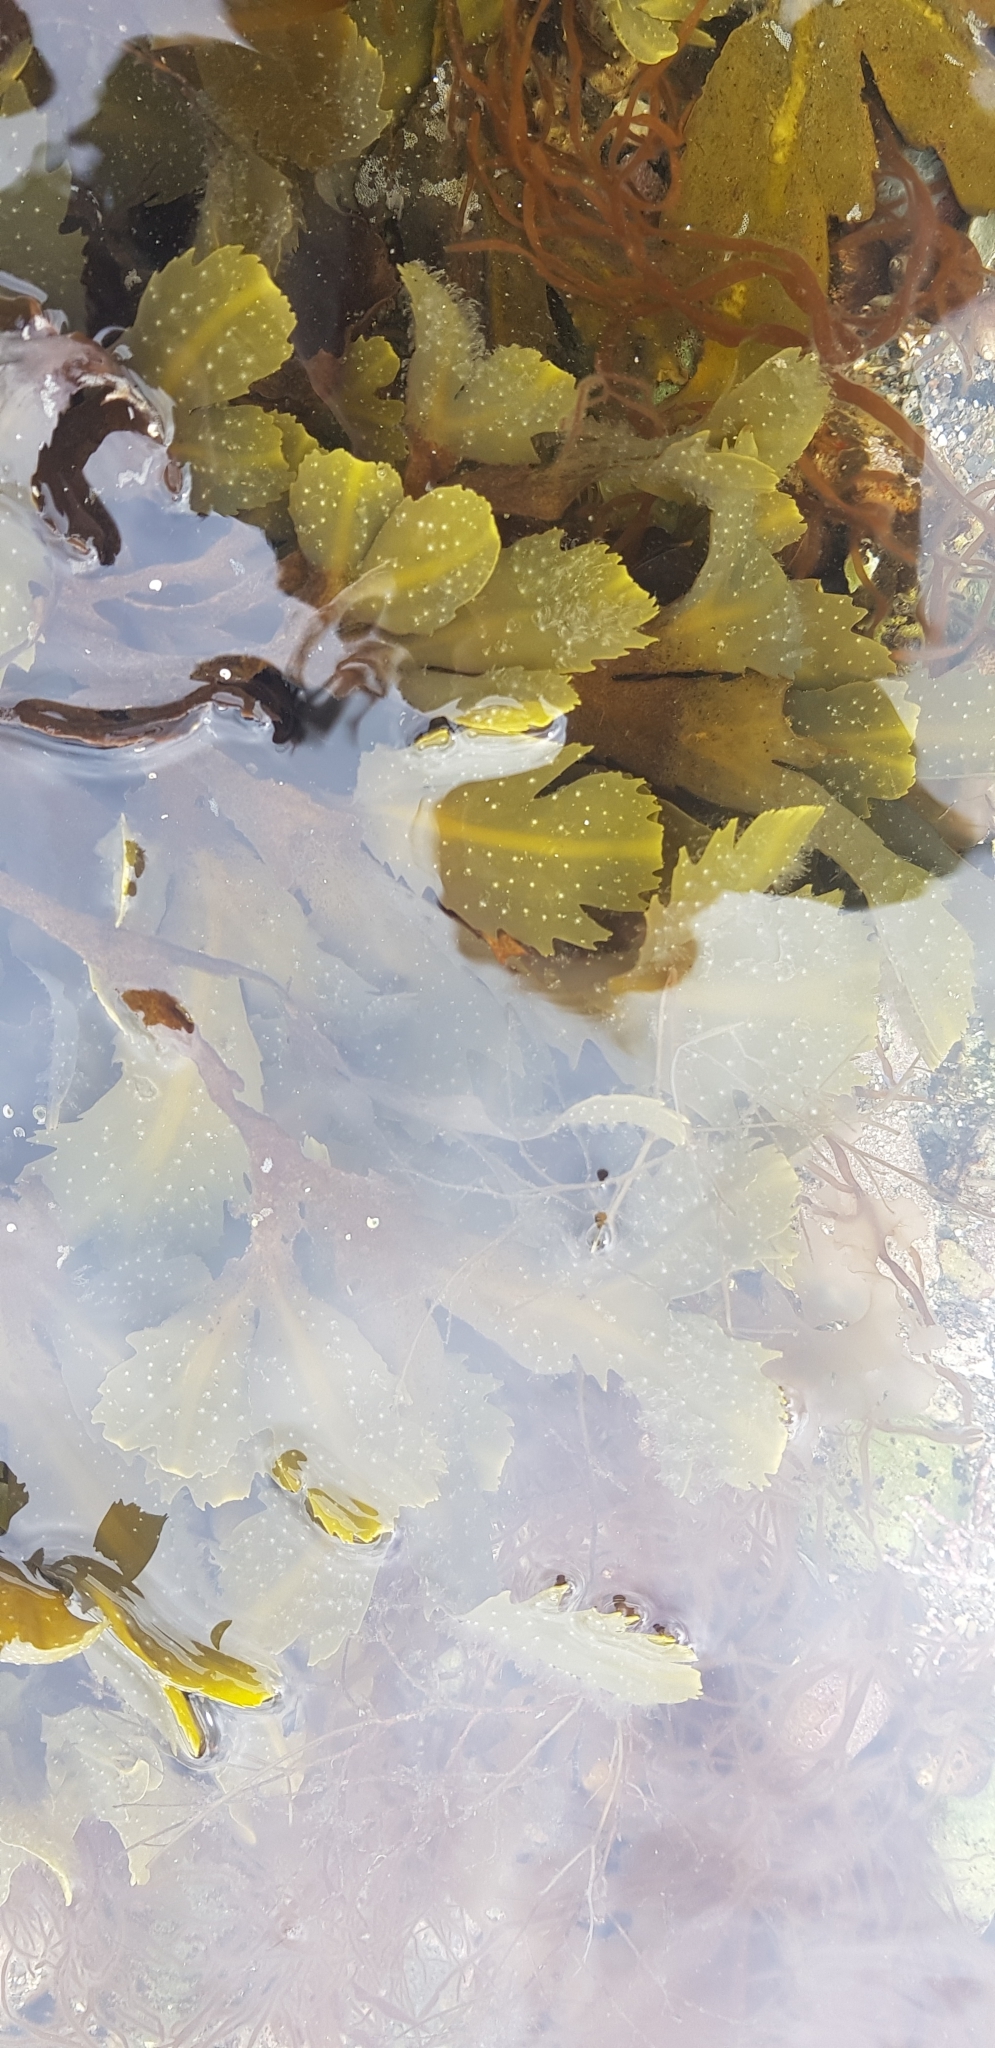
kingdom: Chromista
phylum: Ochrophyta
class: Phaeophyceae
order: Fucales
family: Fucaceae
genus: Fucus
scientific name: Fucus serratus
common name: Toothed wrack
